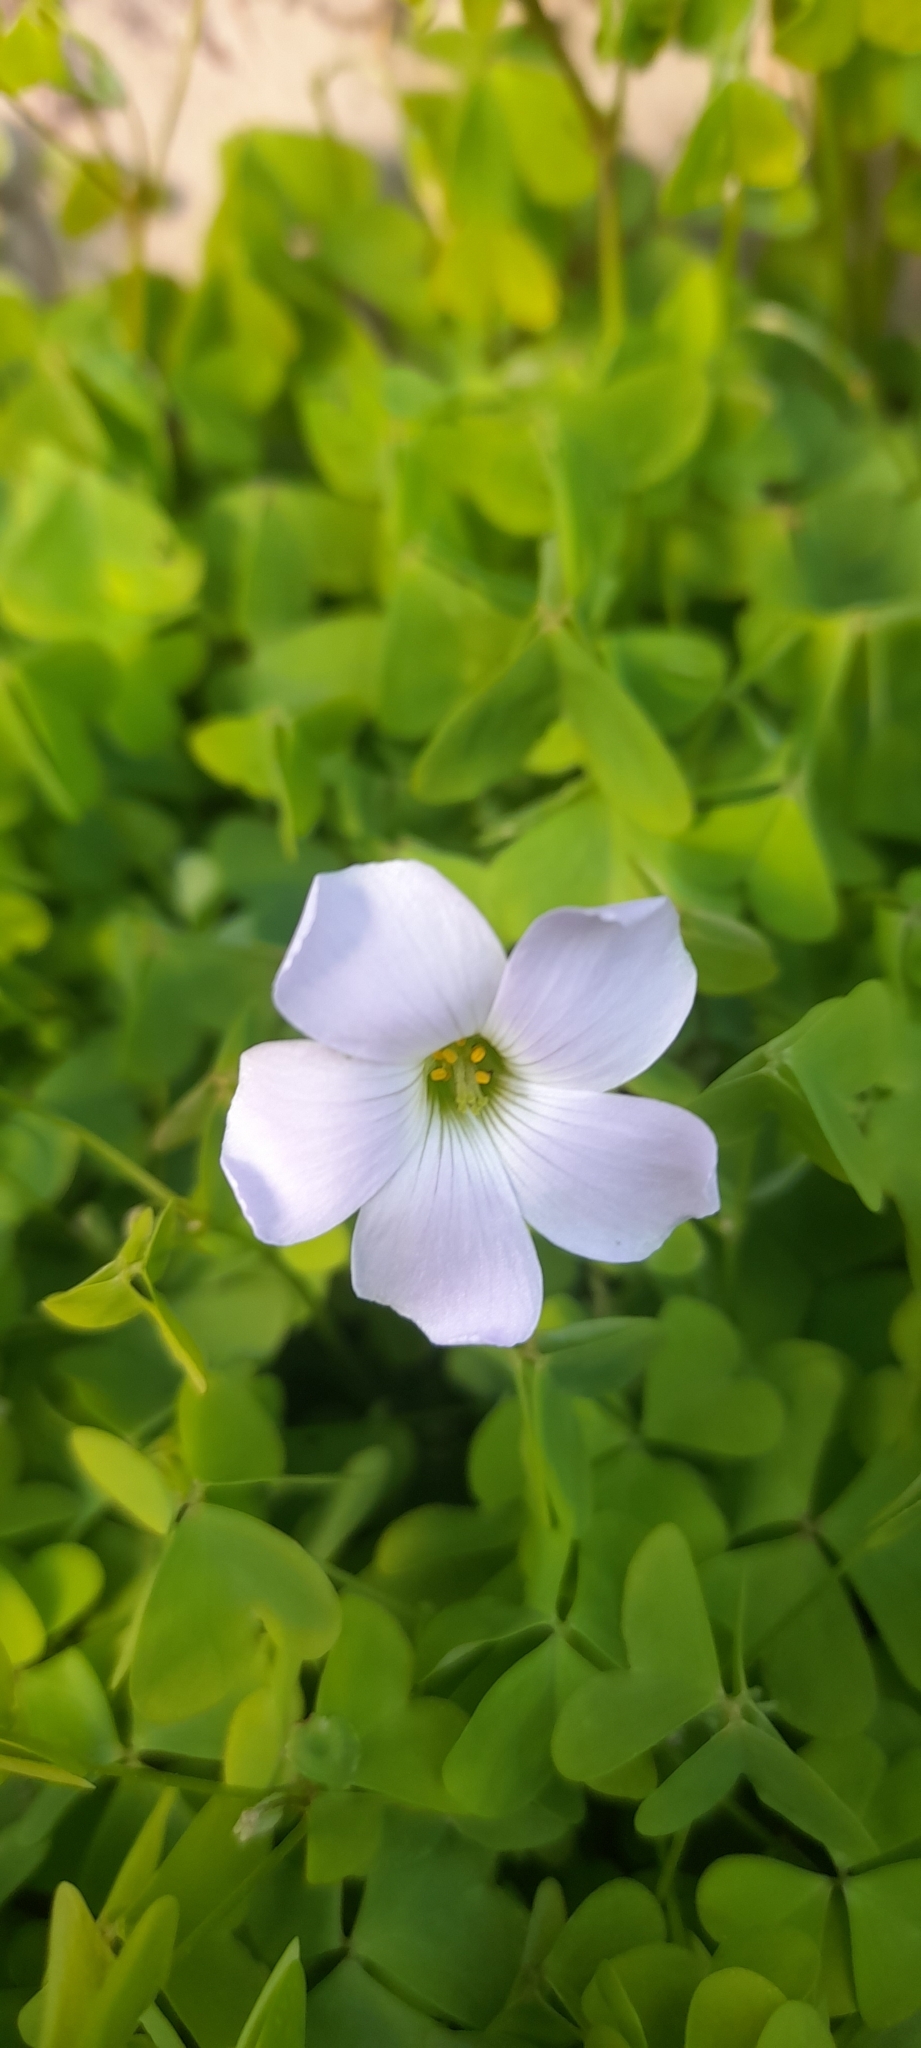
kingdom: Plantae
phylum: Tracheophyta
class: Magnoliopsida
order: Oxalidales
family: Oxalidaceae
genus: Oxalis
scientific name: Oxalis incarnata
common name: Pale pink-sorrel
